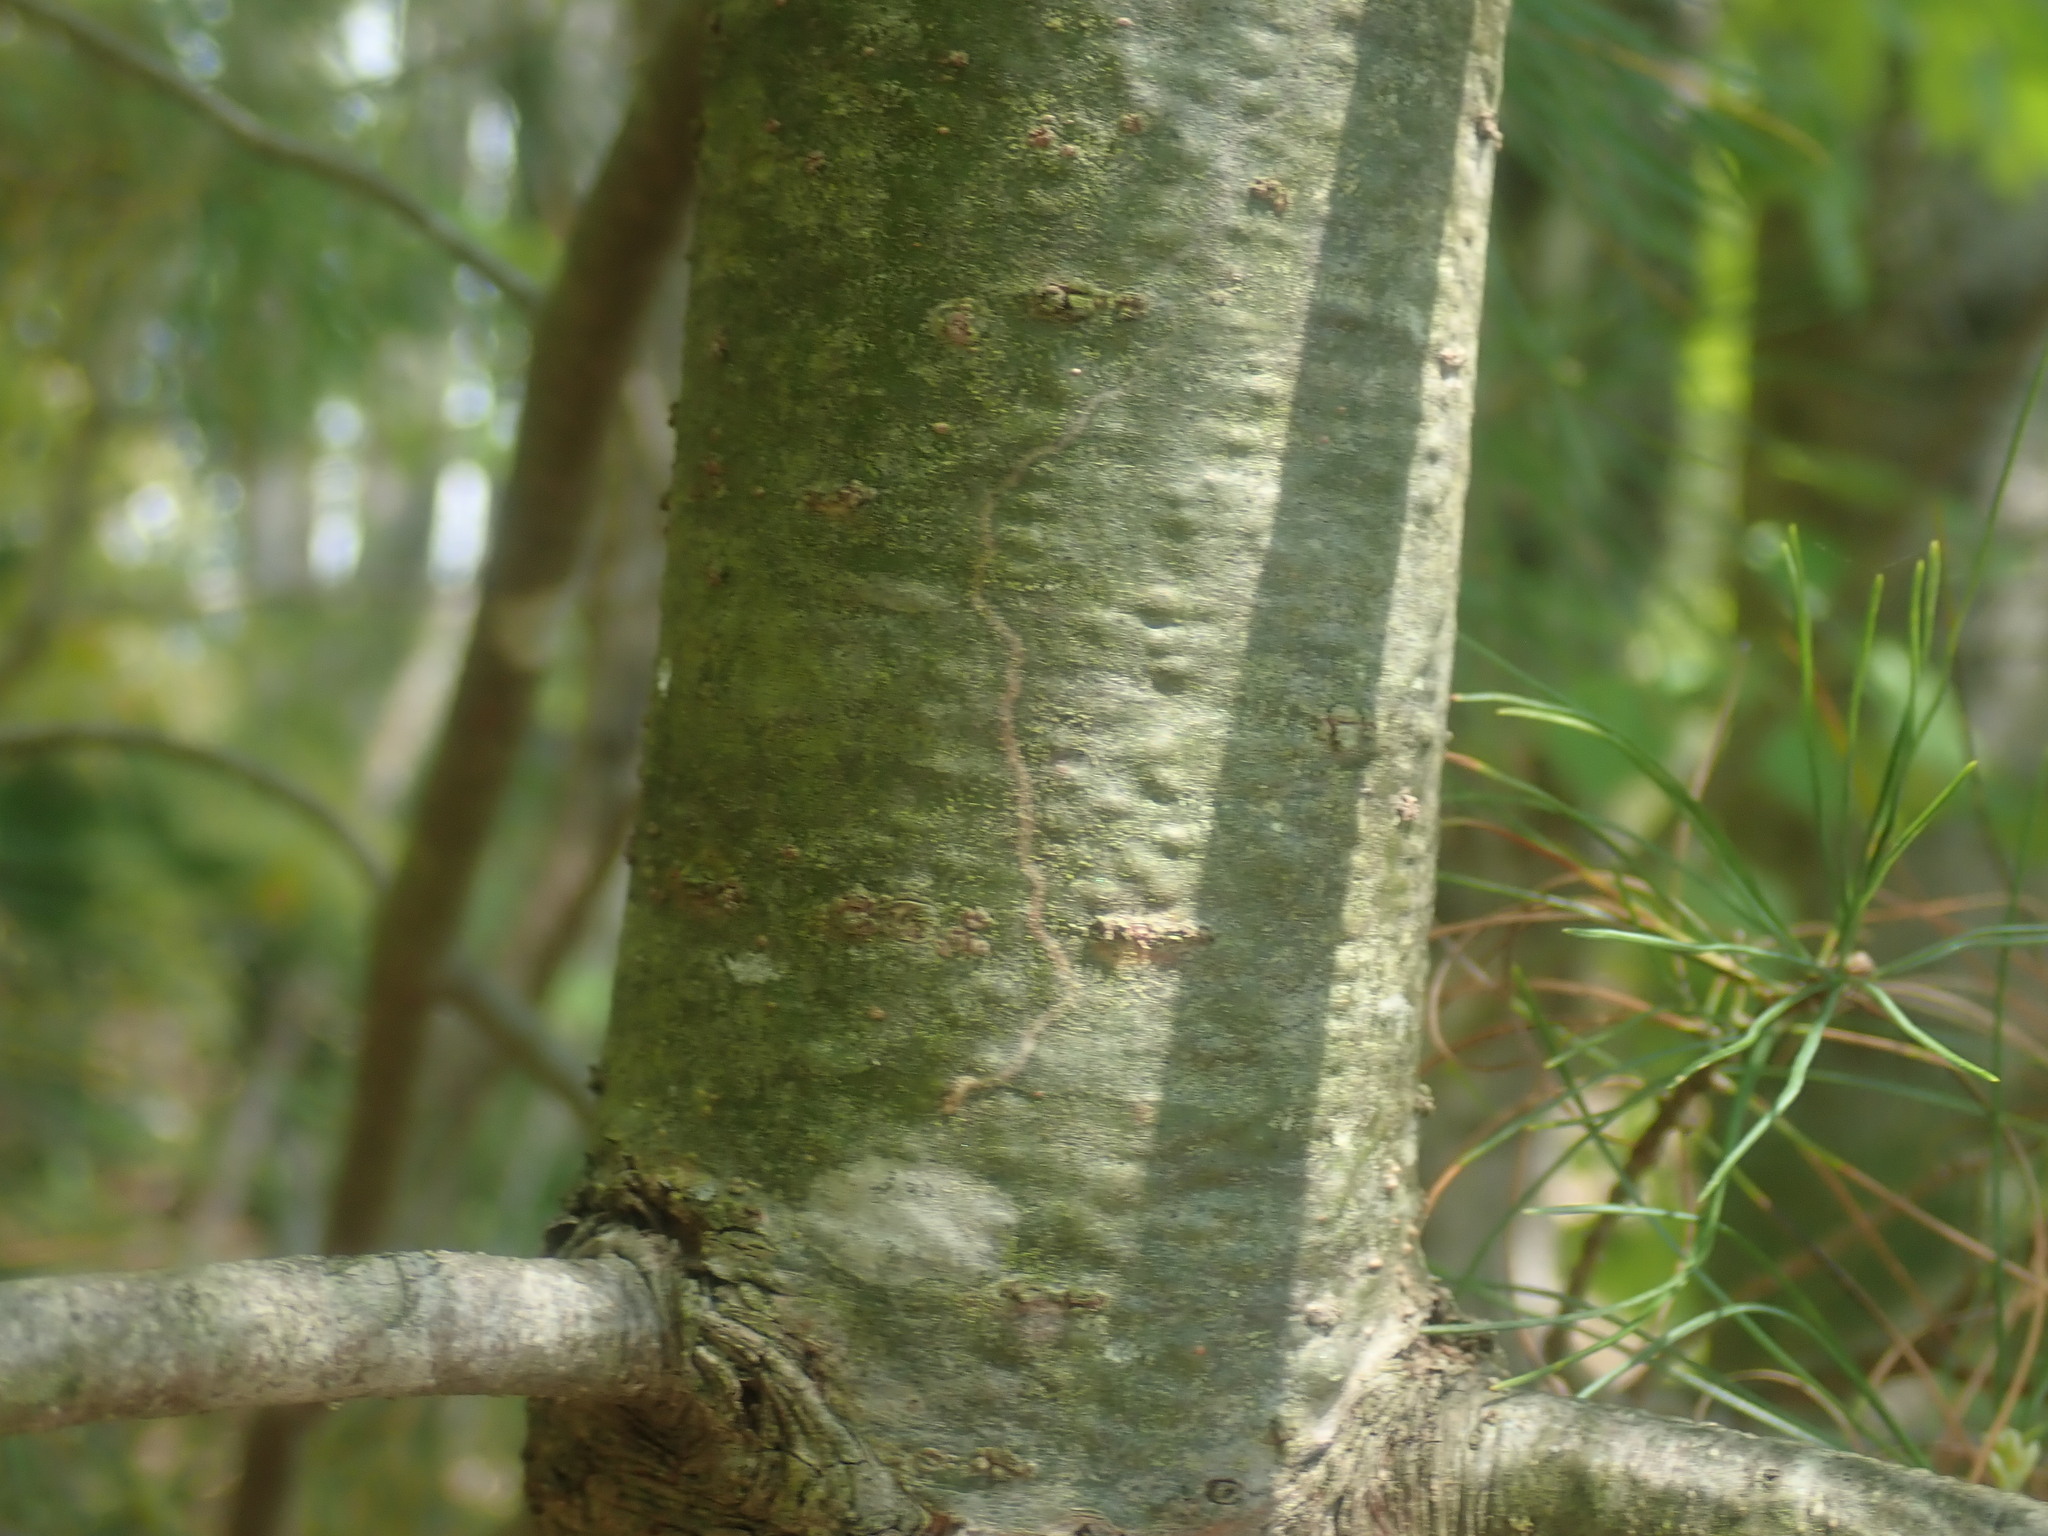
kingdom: Animalia
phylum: Arthropoda
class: Insecta
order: Lepidoptera
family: Gracillariidae
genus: Marmara
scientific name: Marmara fasciella
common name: White pine barkminer moth
